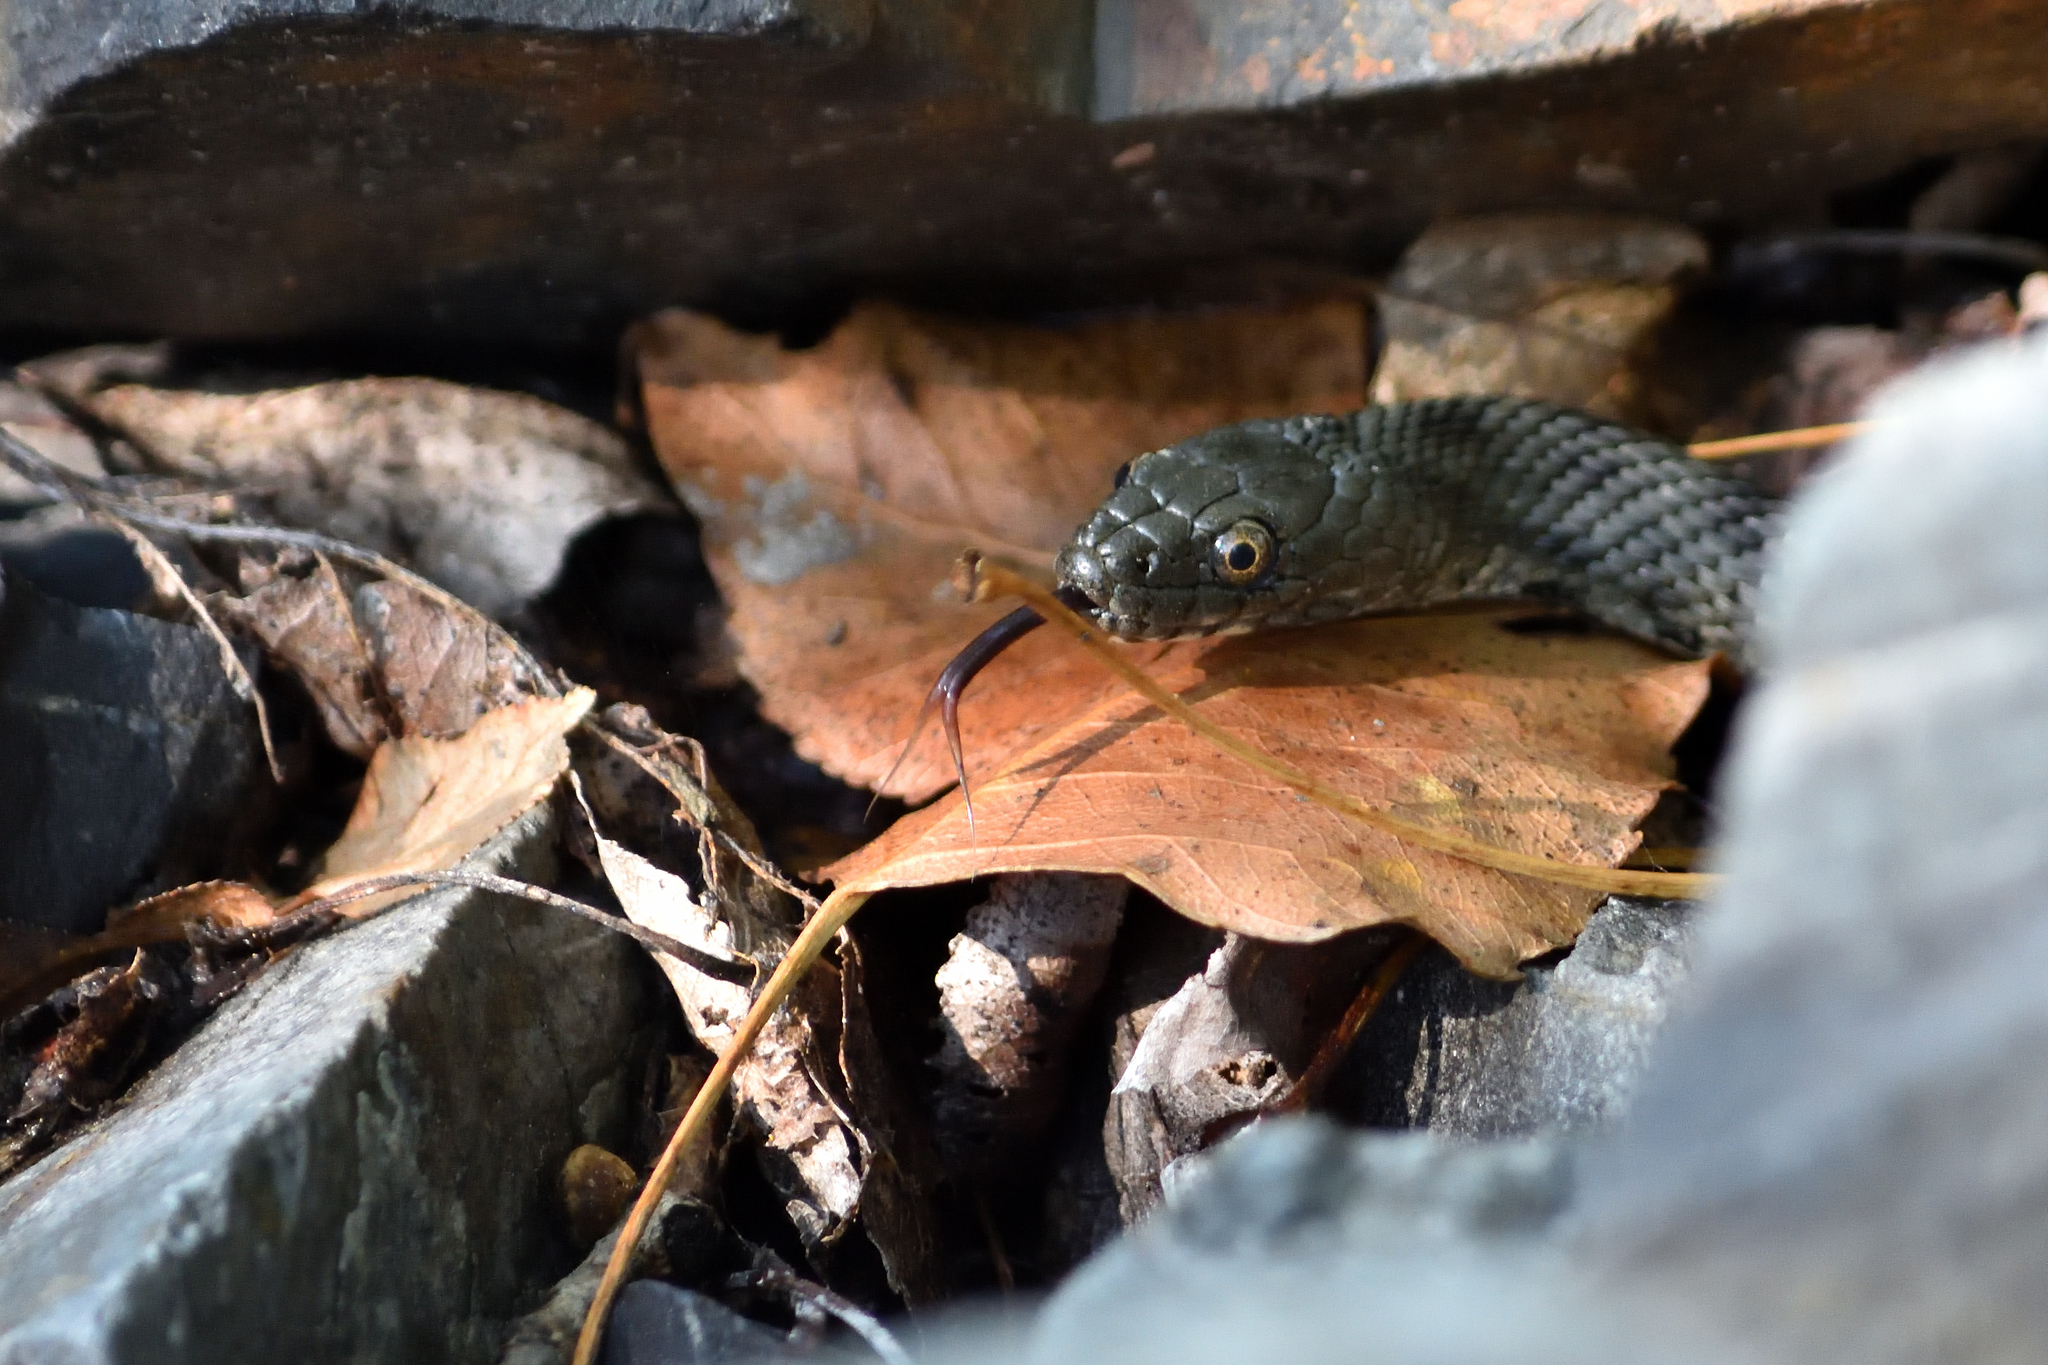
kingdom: Animalia
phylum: Chordata
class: Squamata
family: Colubridae
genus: Natrix
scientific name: Natrix tessellata
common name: Dice snake
